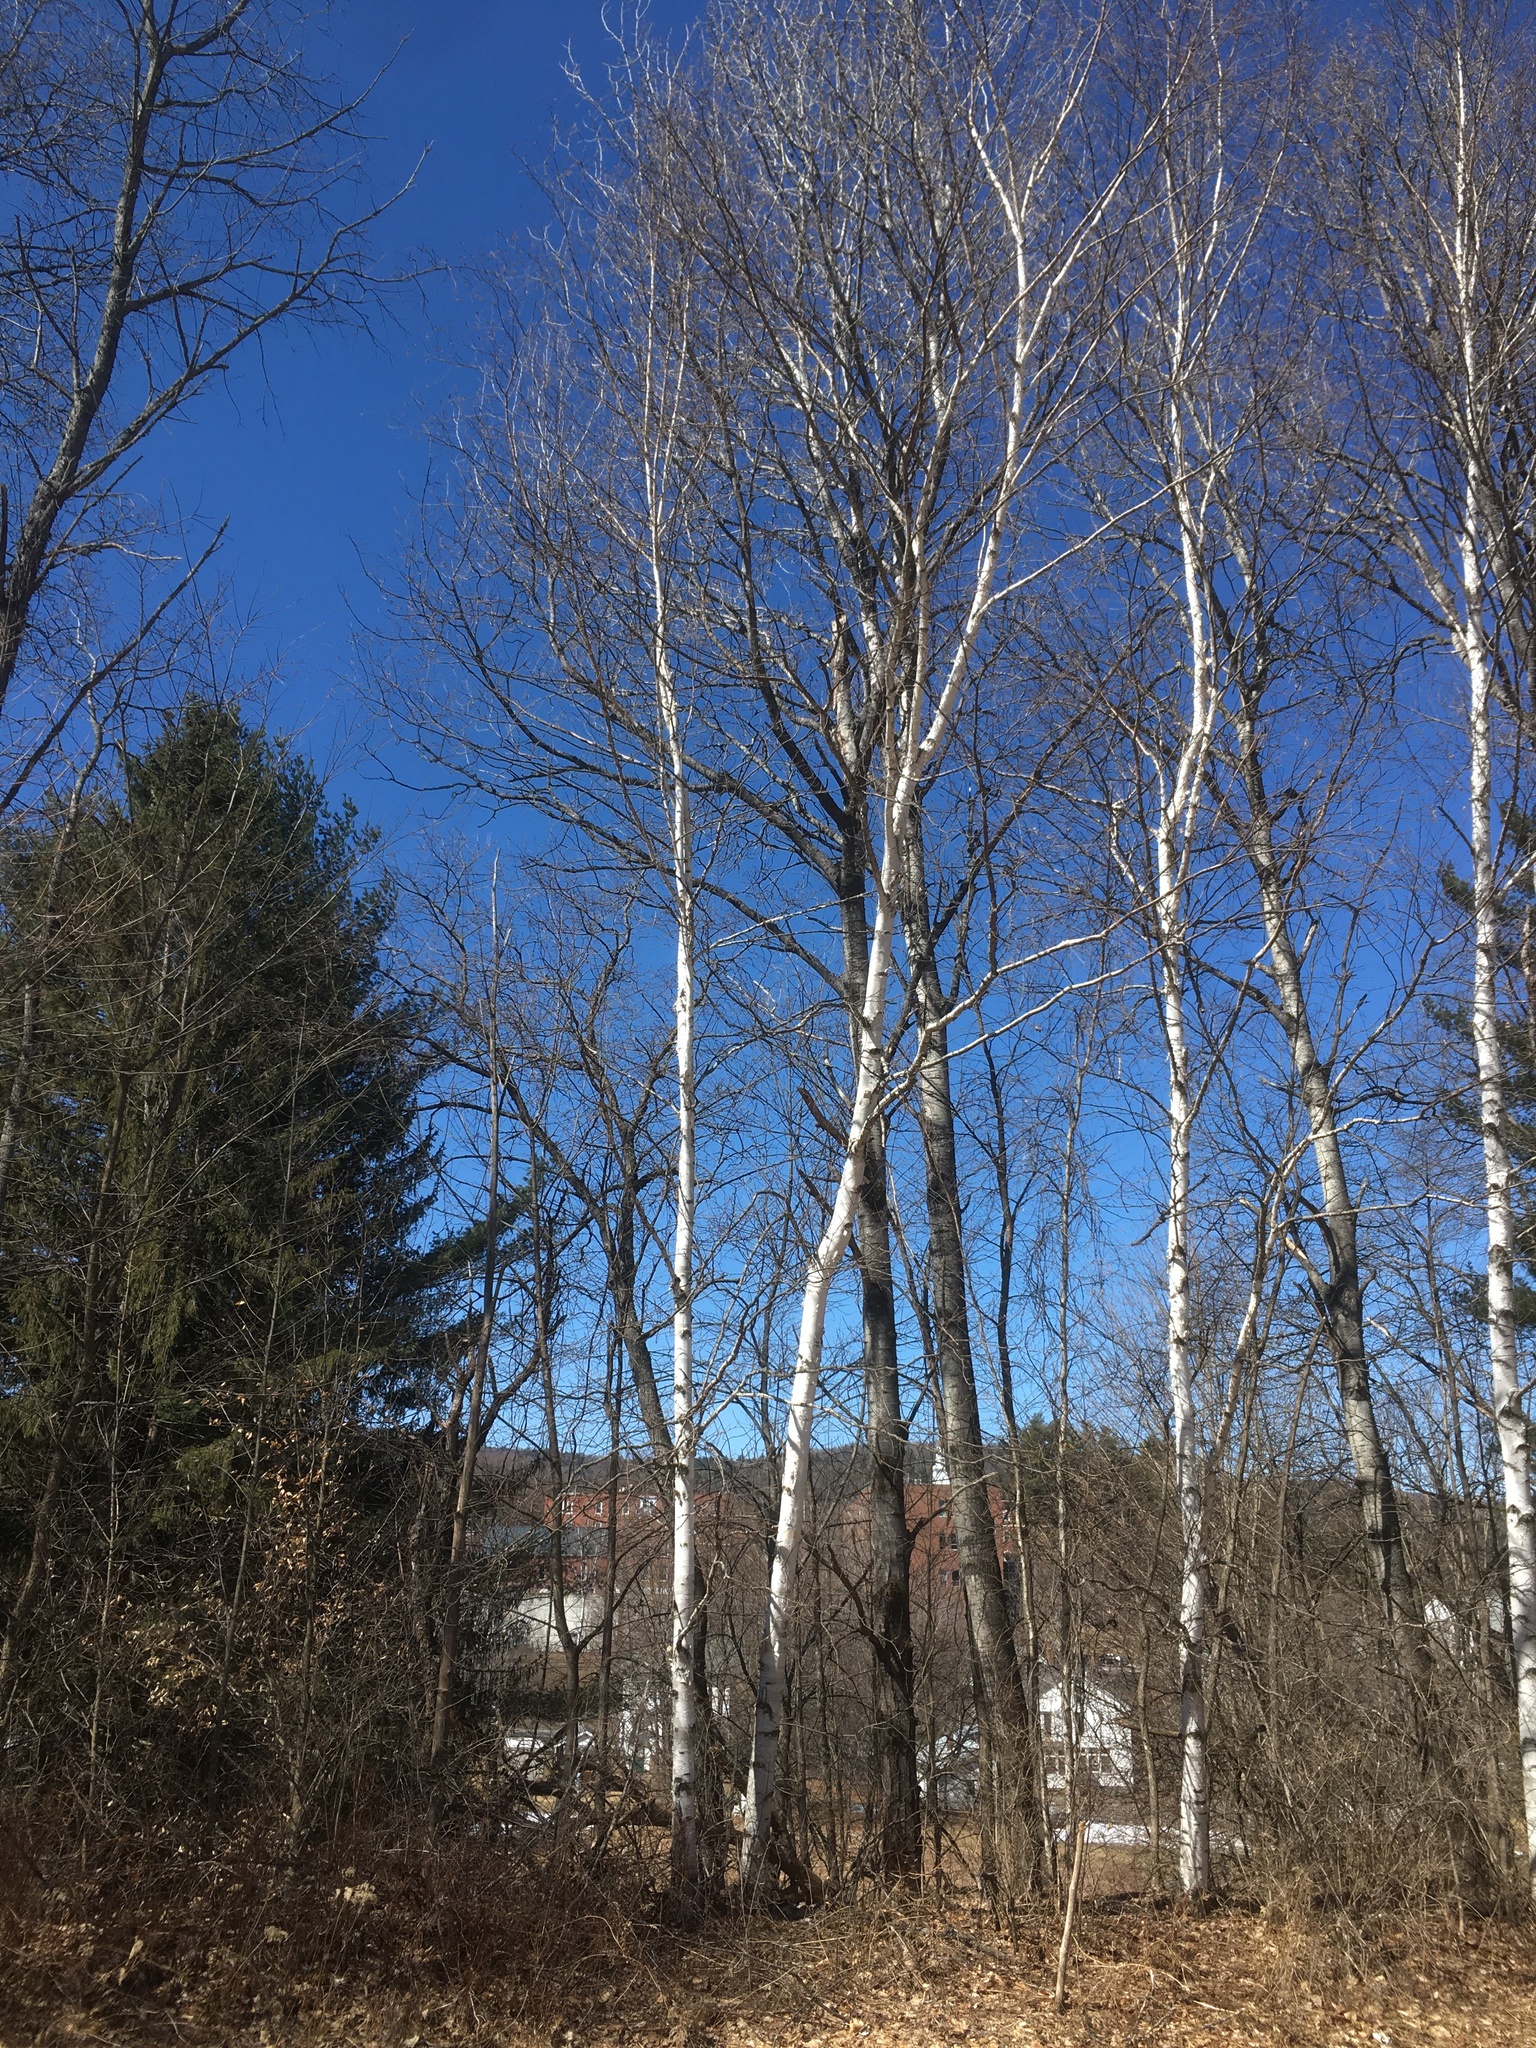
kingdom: Plantae
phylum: Tracheophyta
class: Magnoliopsida
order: Fagales
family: Betulaceae
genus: Betula
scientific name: Betula papyrifera
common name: Paper birch
